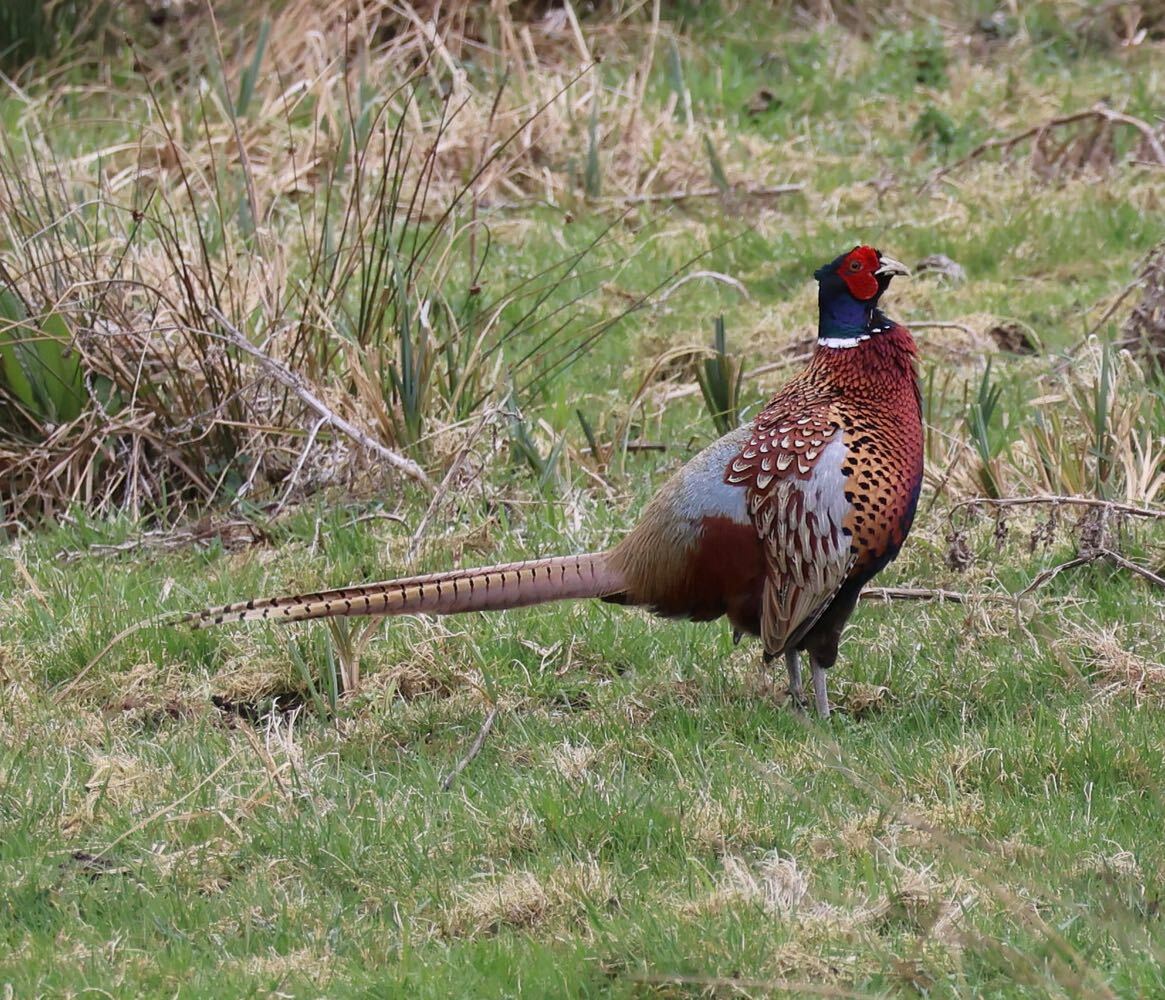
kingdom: Animalia
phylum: Chordata
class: Aves
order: Galliformes
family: Phasianidae
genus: Phasianus
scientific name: Phasianus colchicus
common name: Common pheasant
